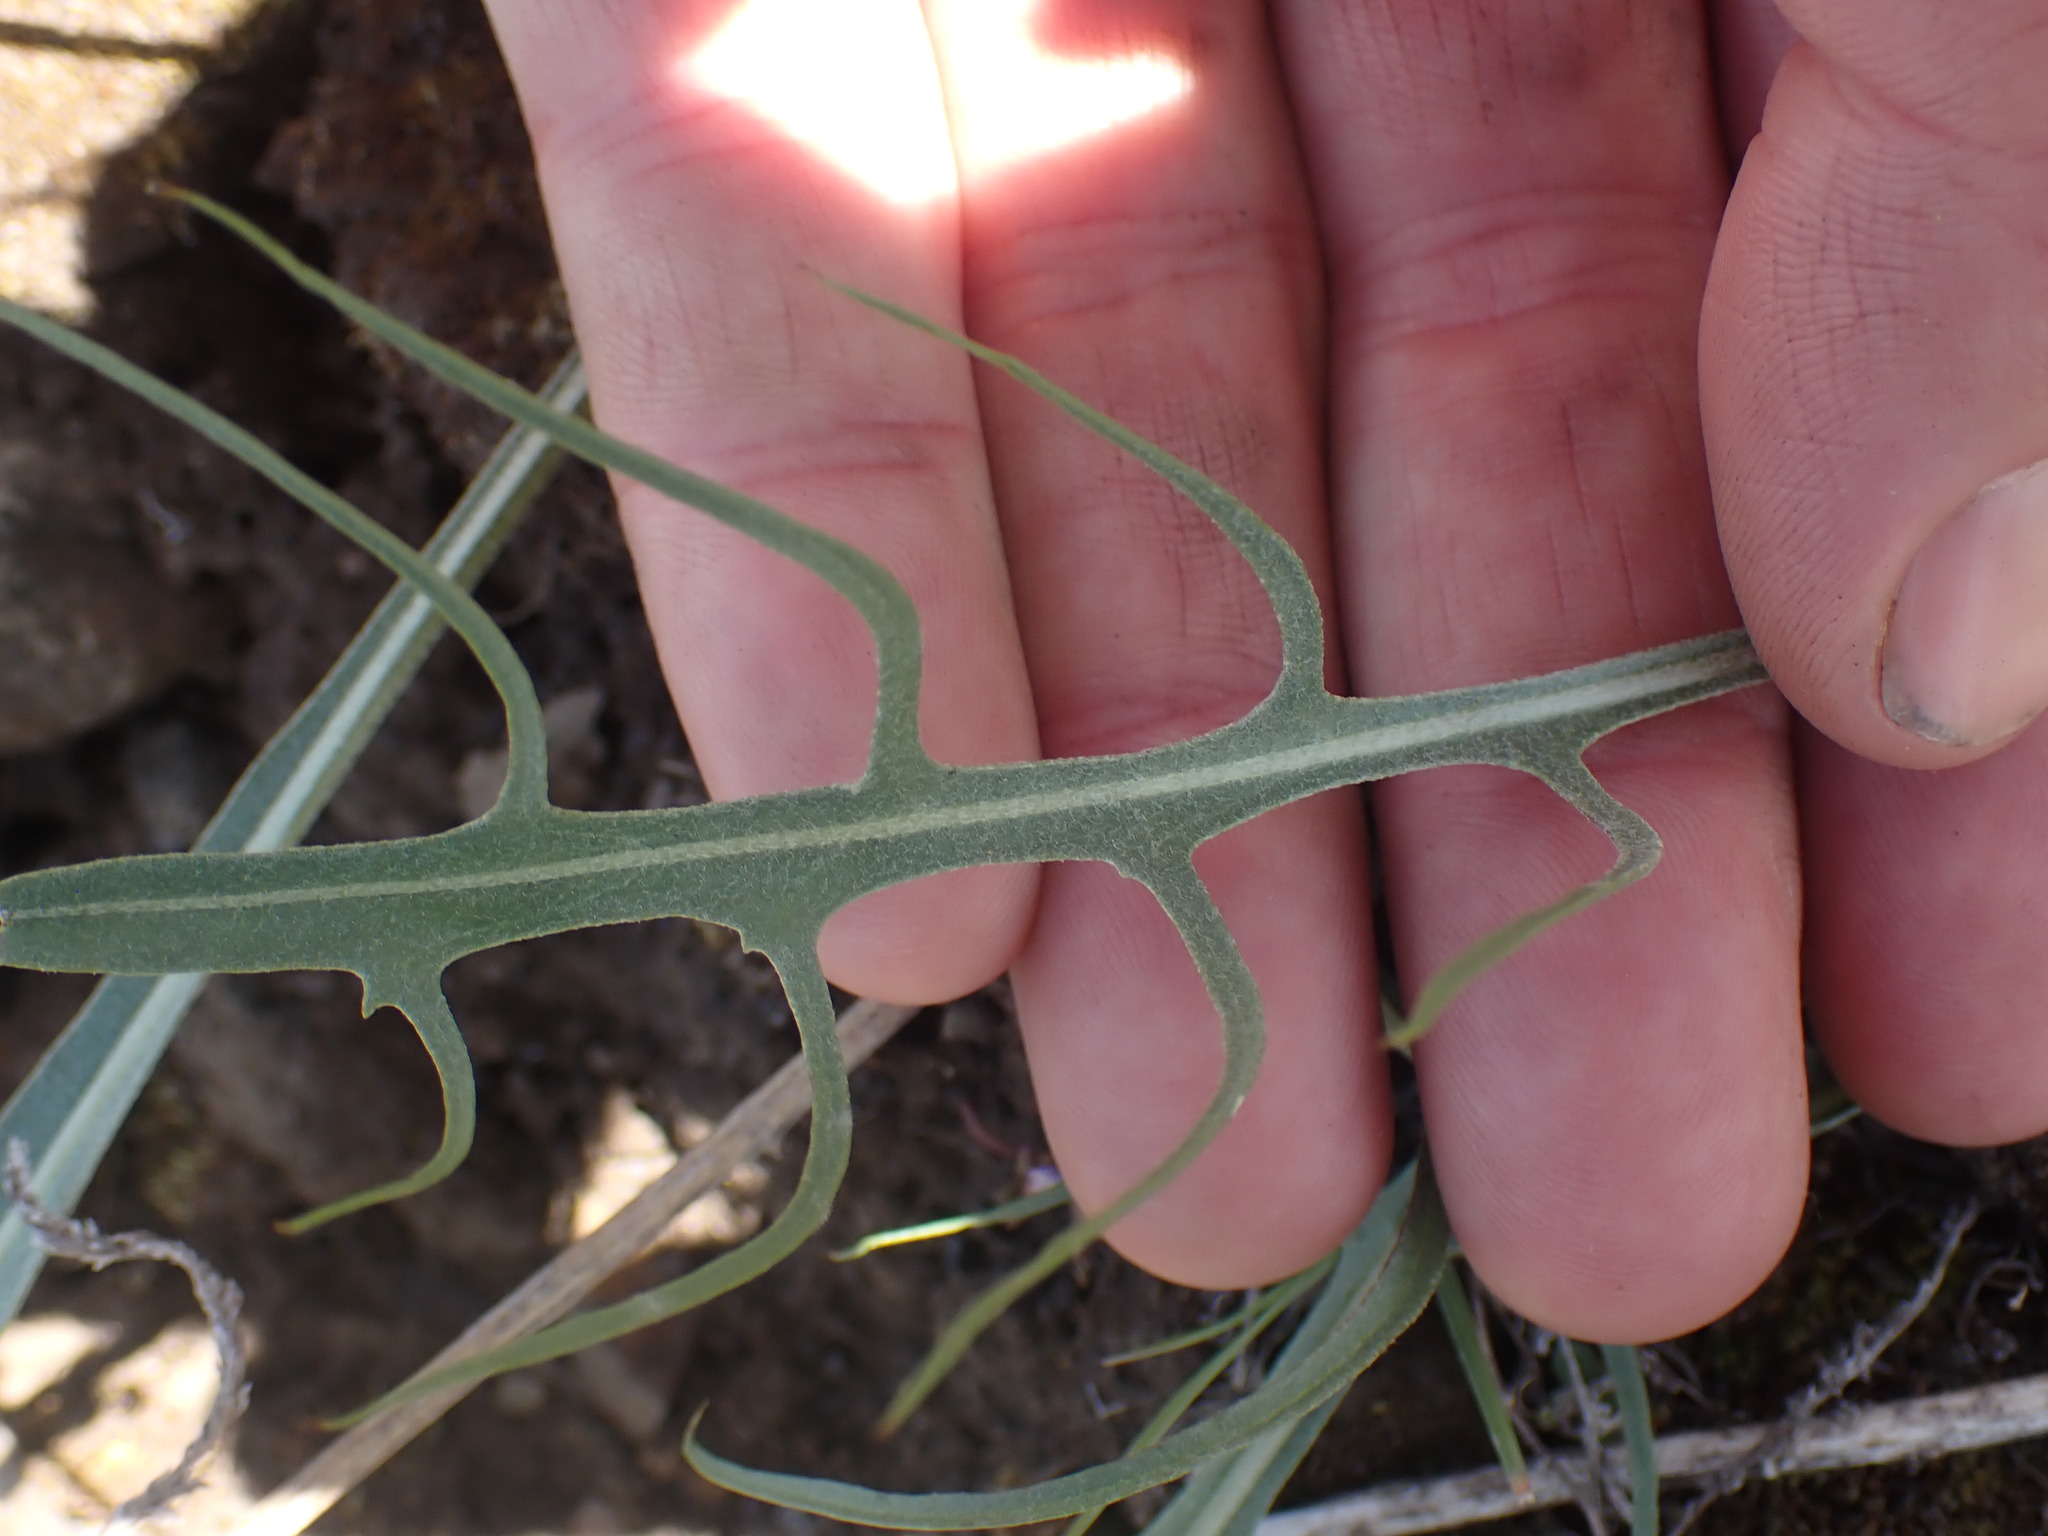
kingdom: Plantae
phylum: Tracheophyta
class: Magnoliopsida
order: Asterales
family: Asteraceae
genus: Crepis
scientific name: Crepis atribarba
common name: Dark hawk's-beard
